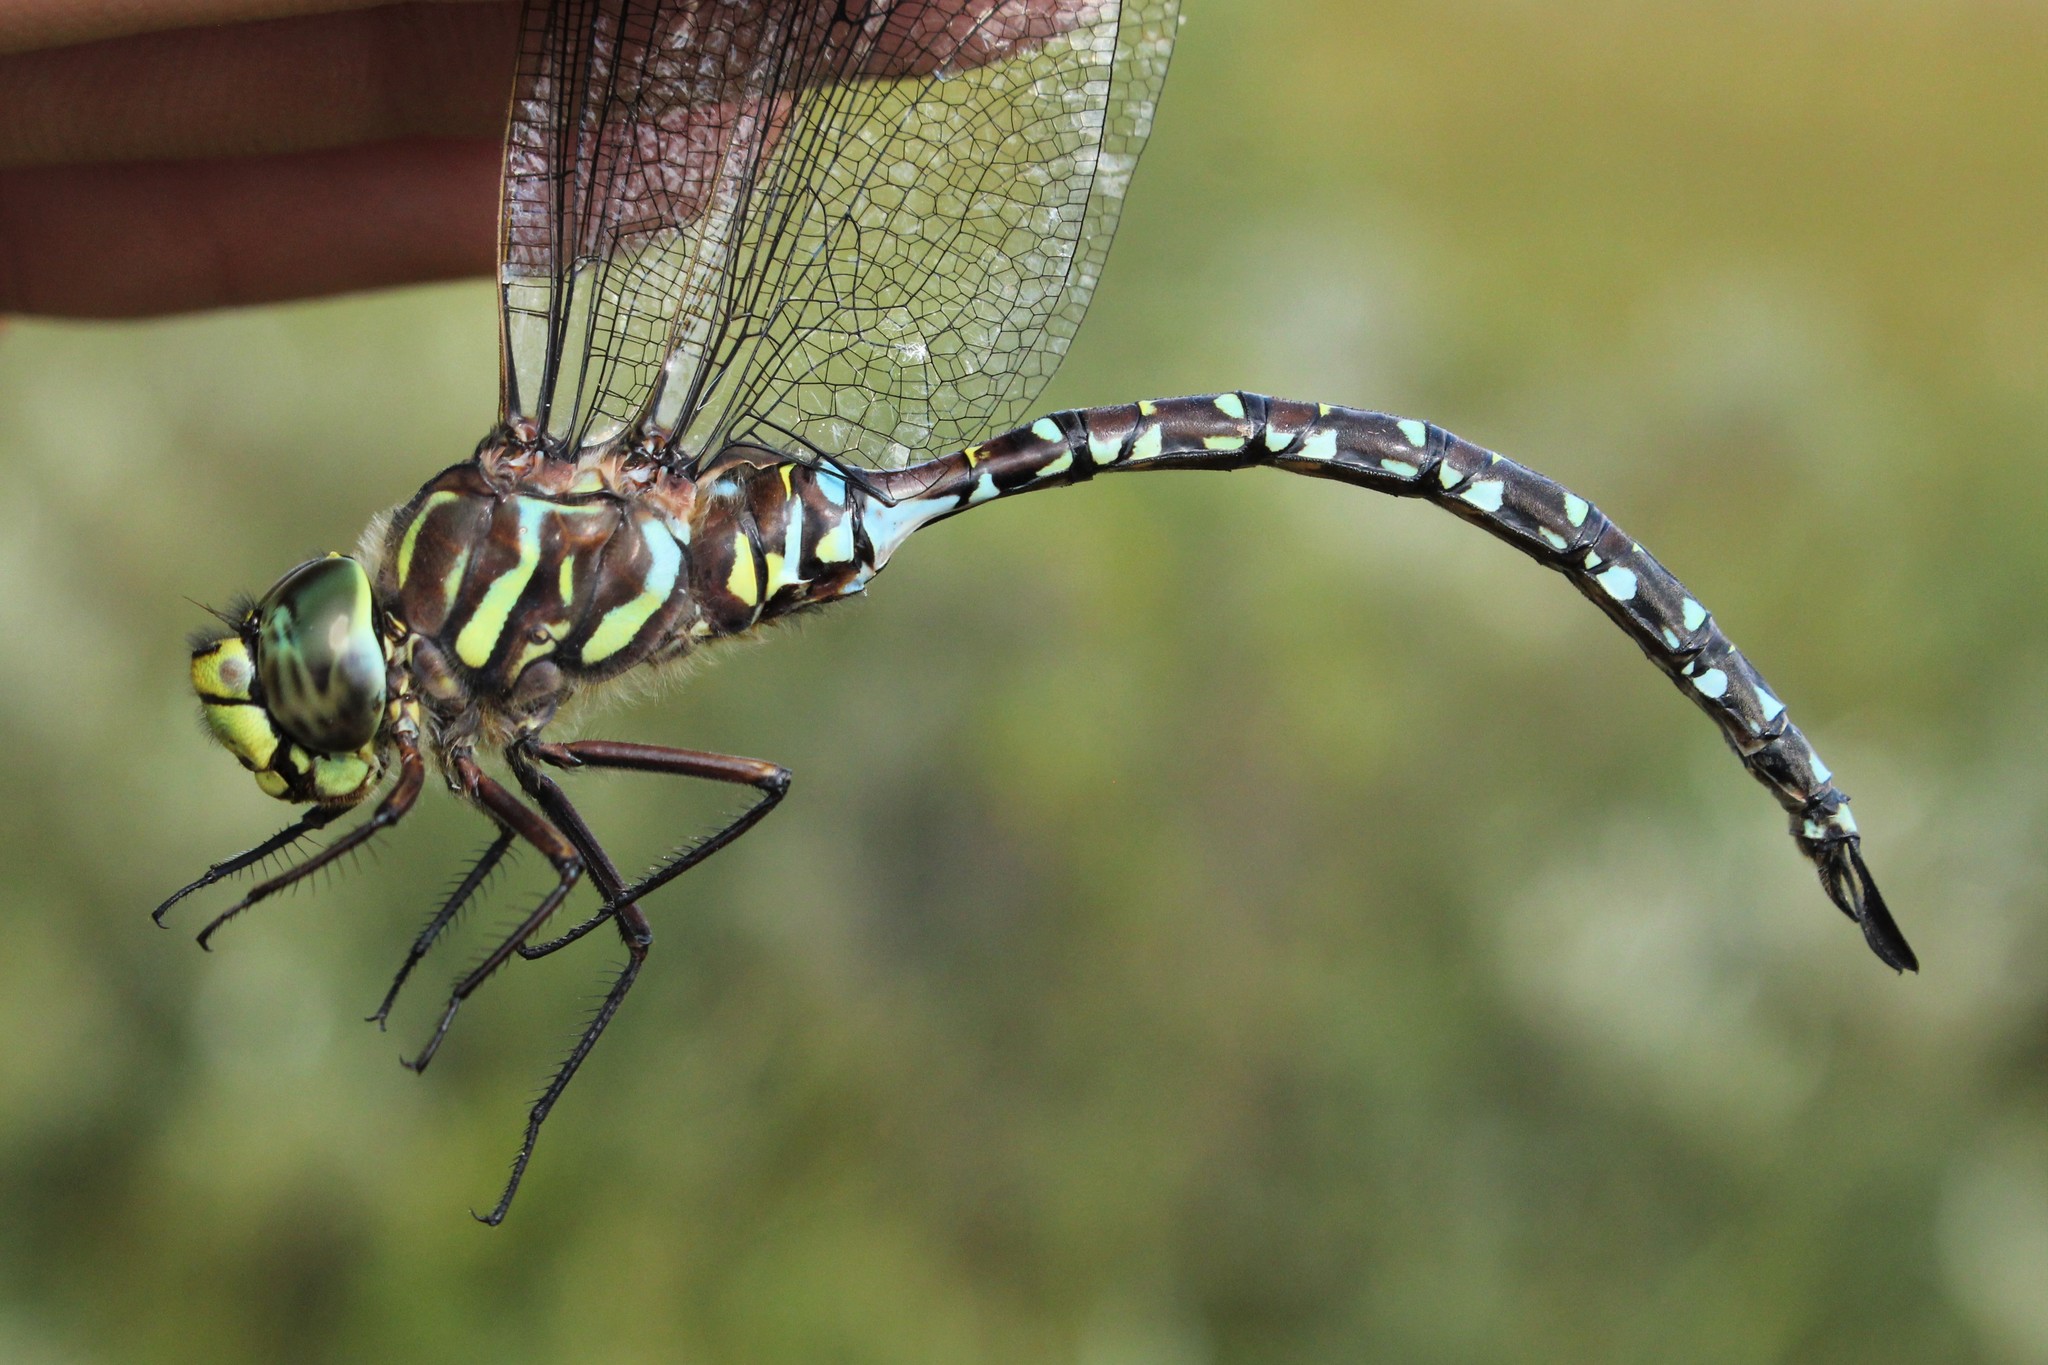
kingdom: Animalia
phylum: Arthropoda
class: Insecta
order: Odonata
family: Aeshnidae
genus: Aeshna
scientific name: Aeshna subarctica
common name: Subarctic darner
